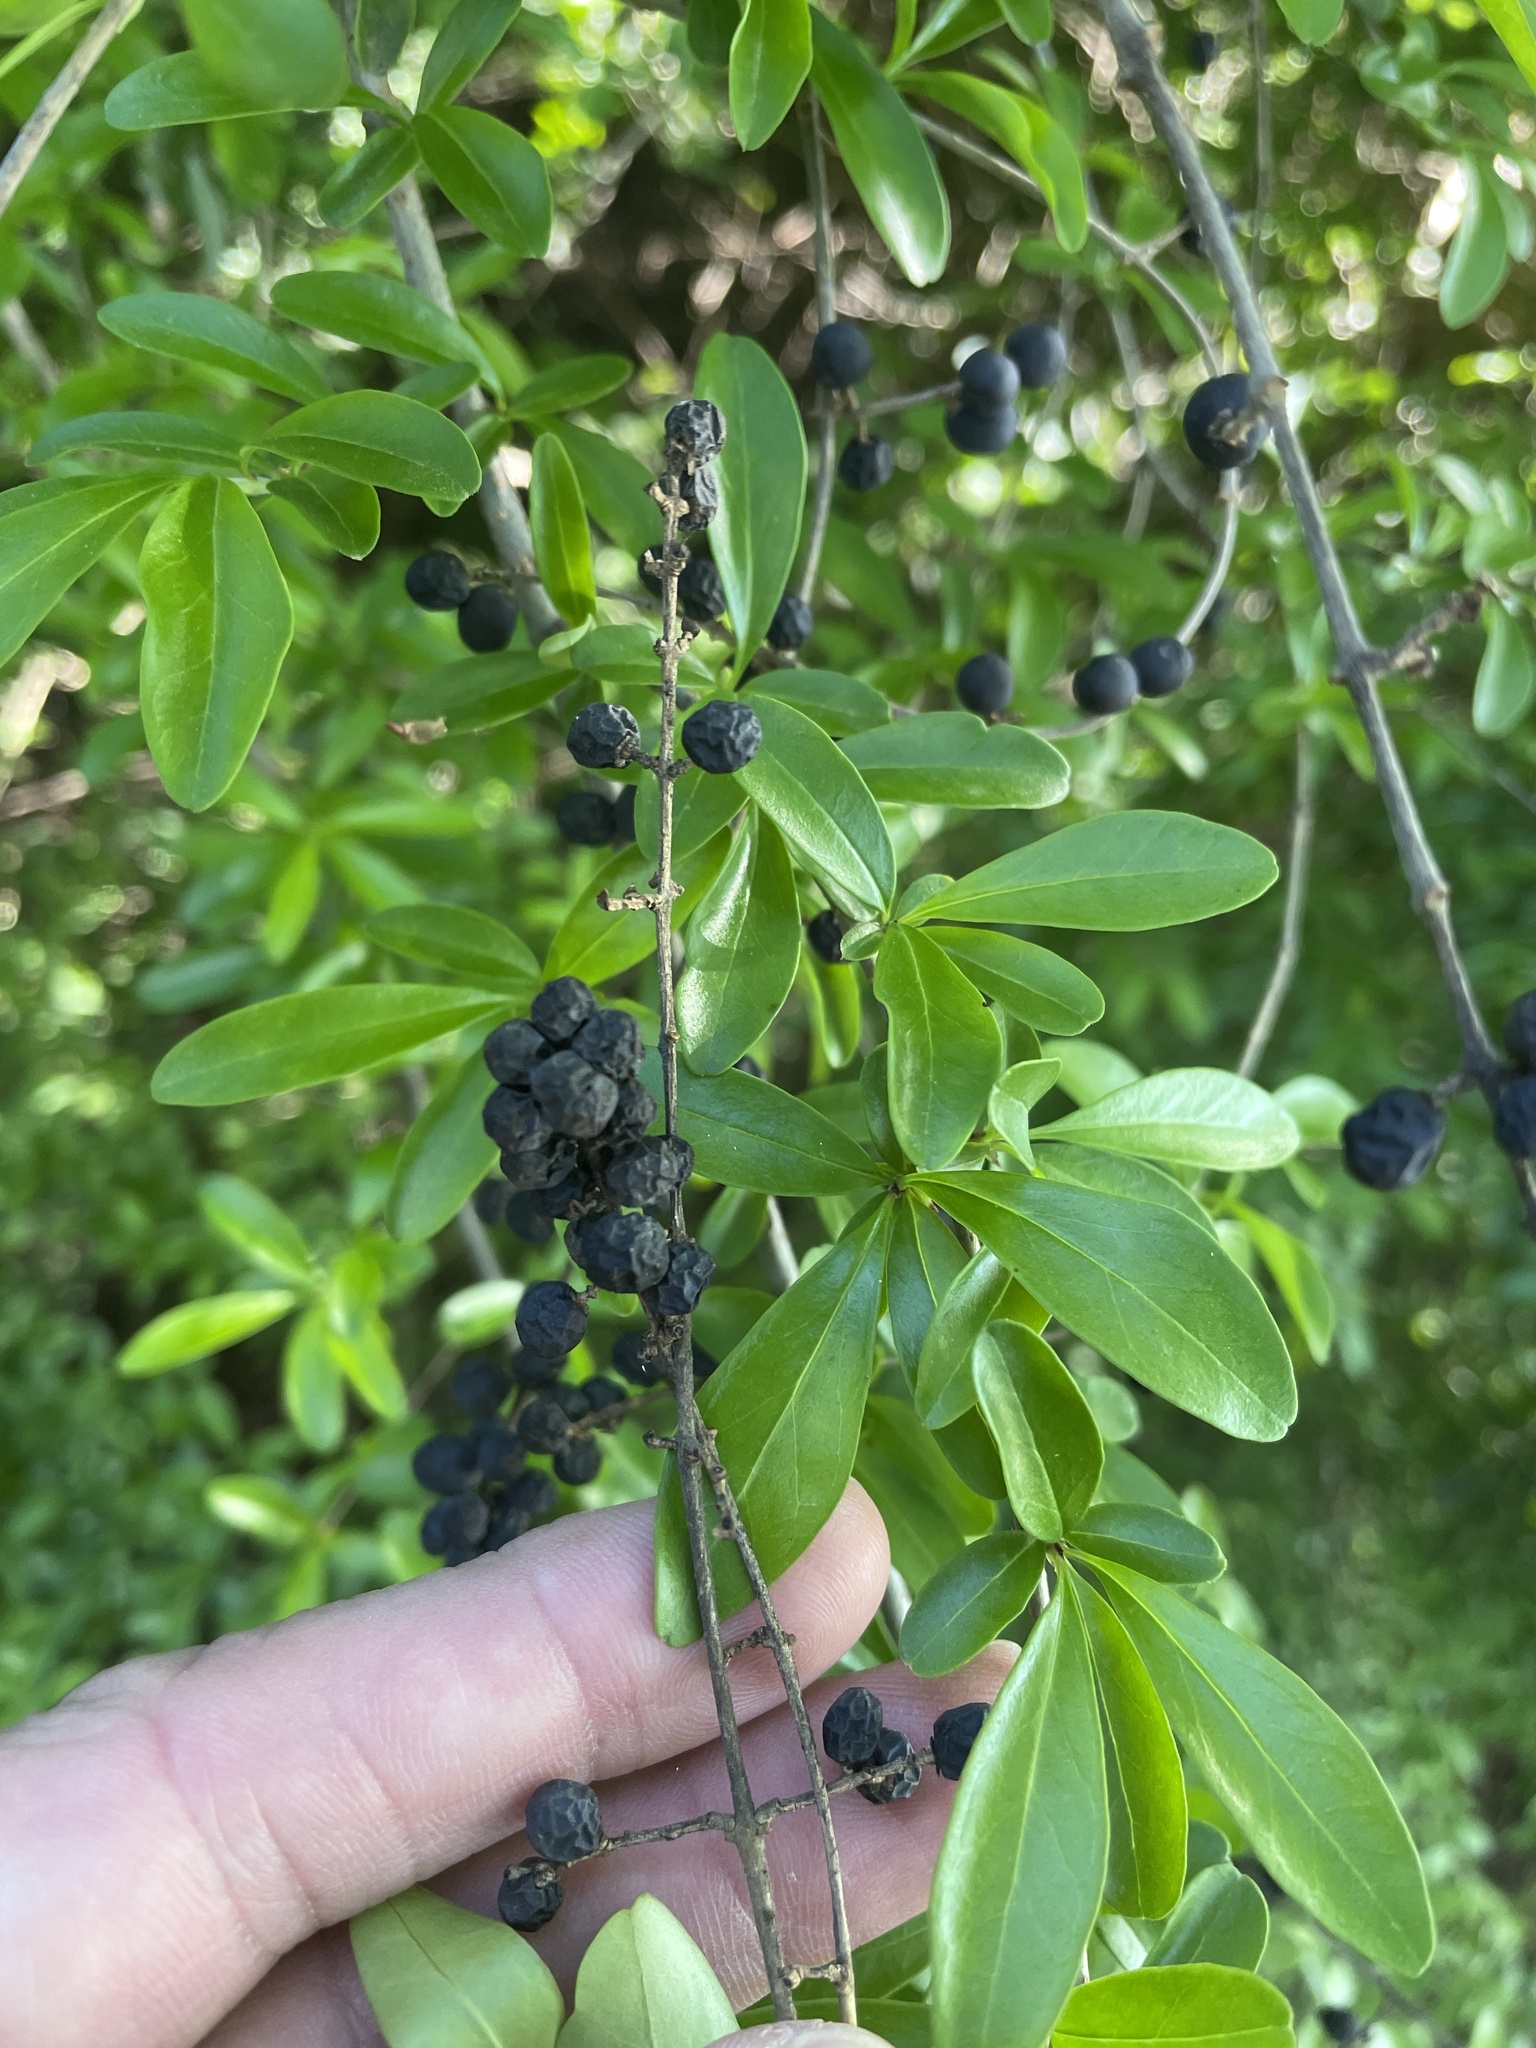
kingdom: Plantae
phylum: Tracheophyta
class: Magnoliopsida
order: Lamiales
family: Oleaceae
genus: Ligustrum
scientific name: Ligustrum quihoui
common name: Waxyleaf privet
